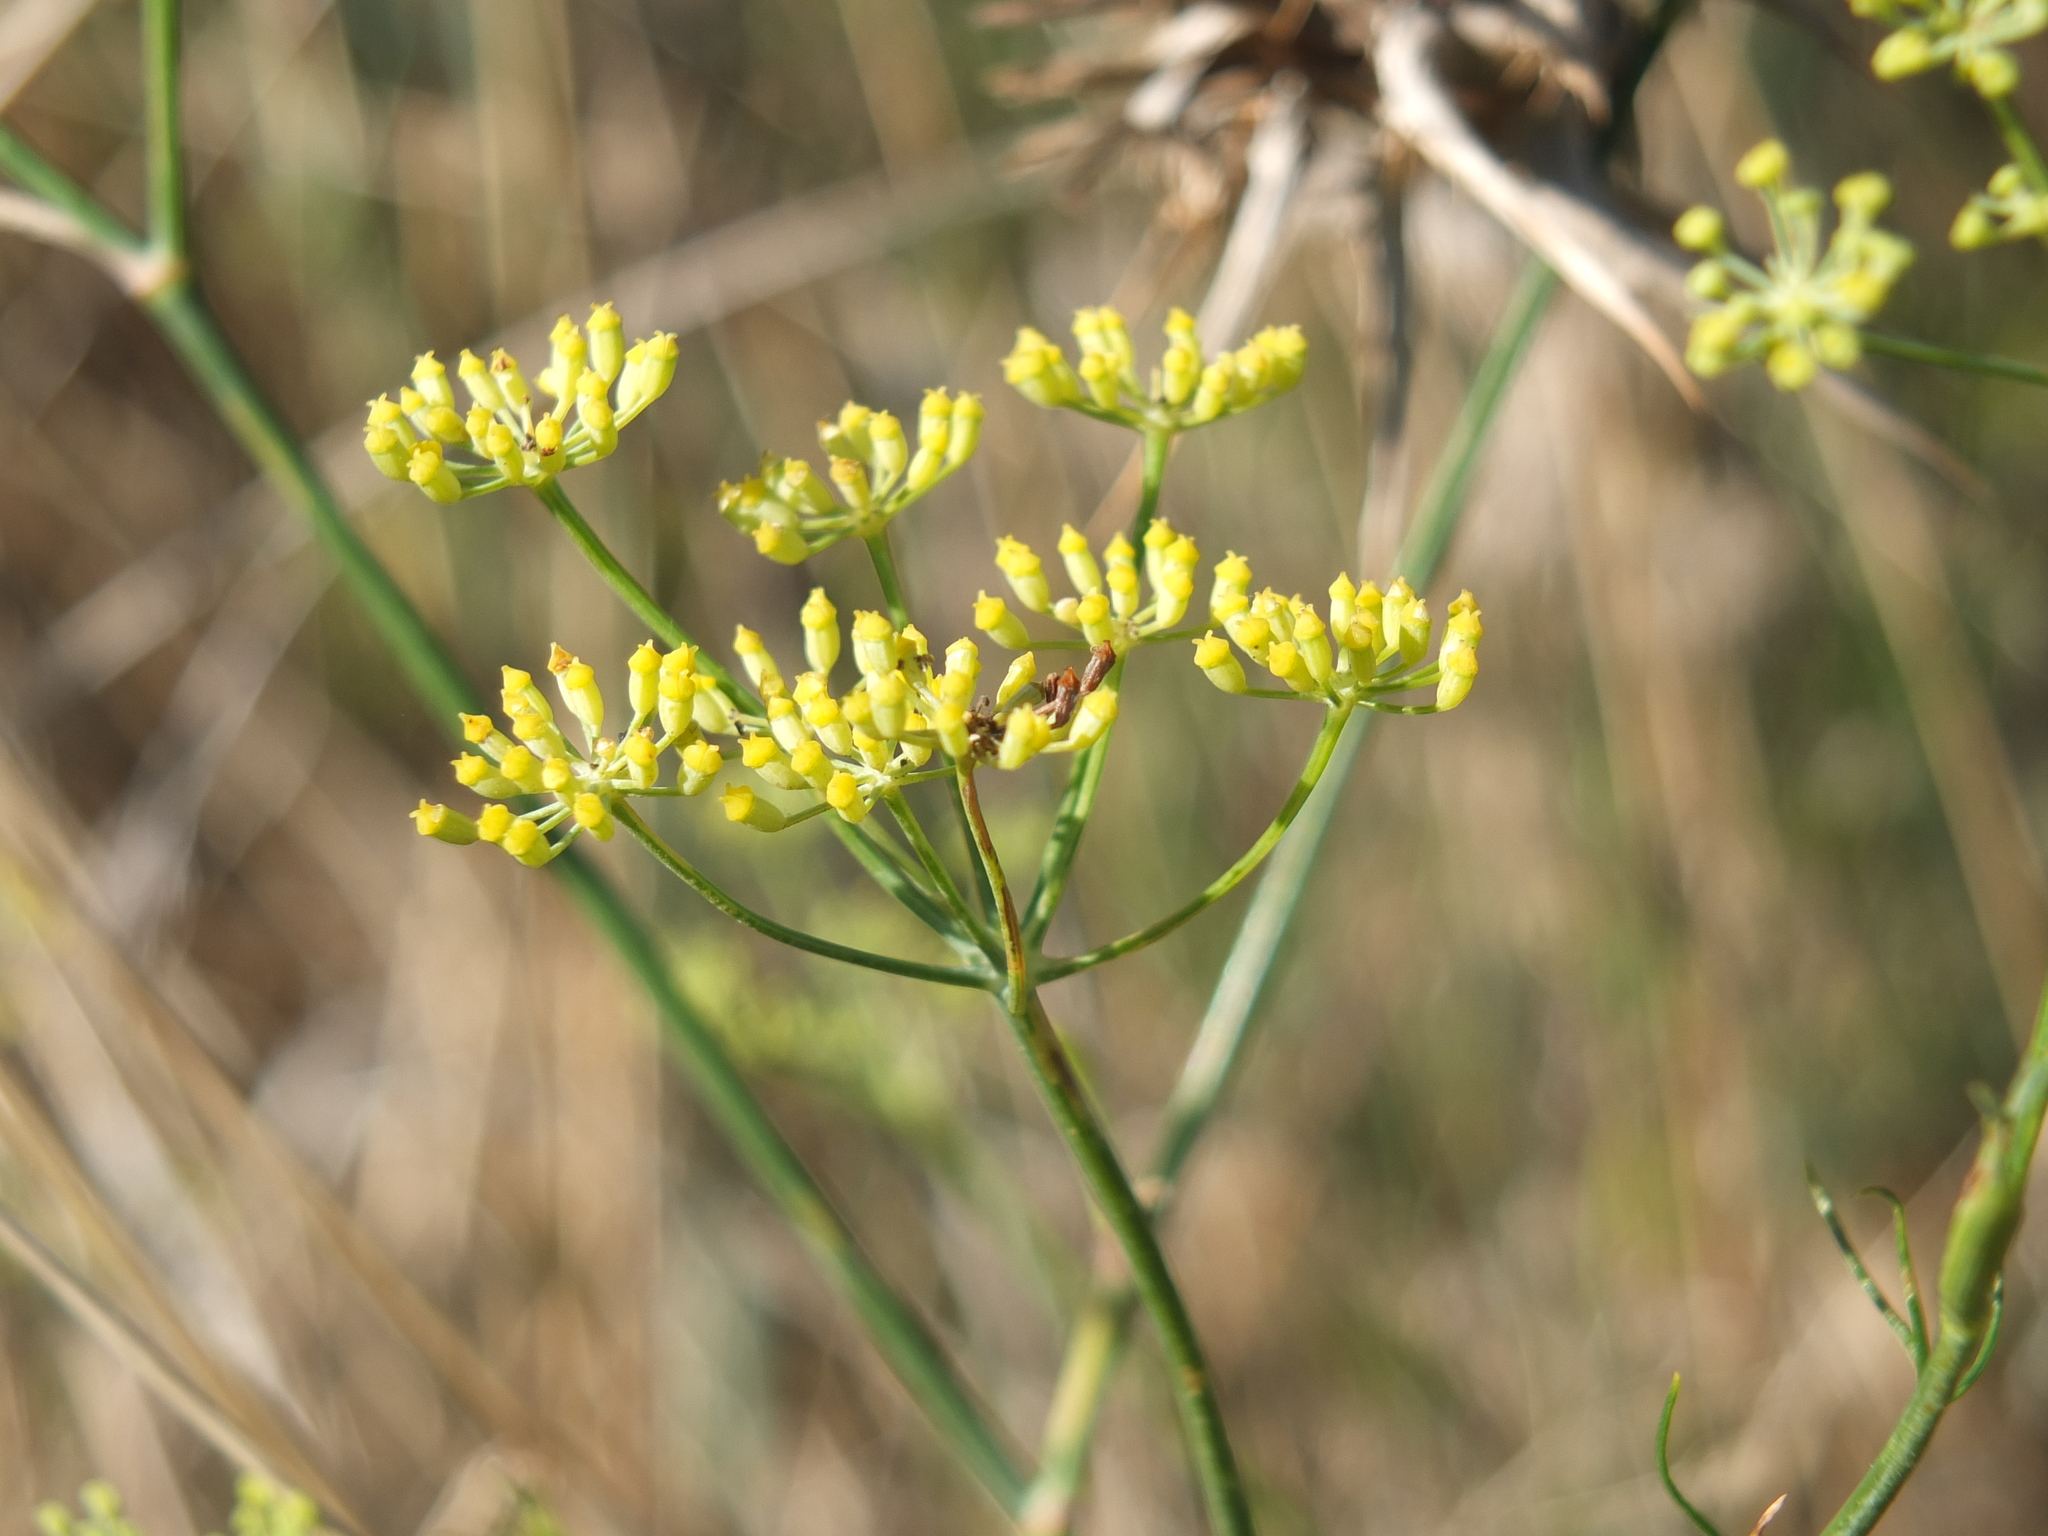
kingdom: Plantae
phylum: Tracheophyta
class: Magnoliopsida
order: Apiales
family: Apiaceae
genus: Foeniculum
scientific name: Foeniculum vulgare
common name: Fennel
